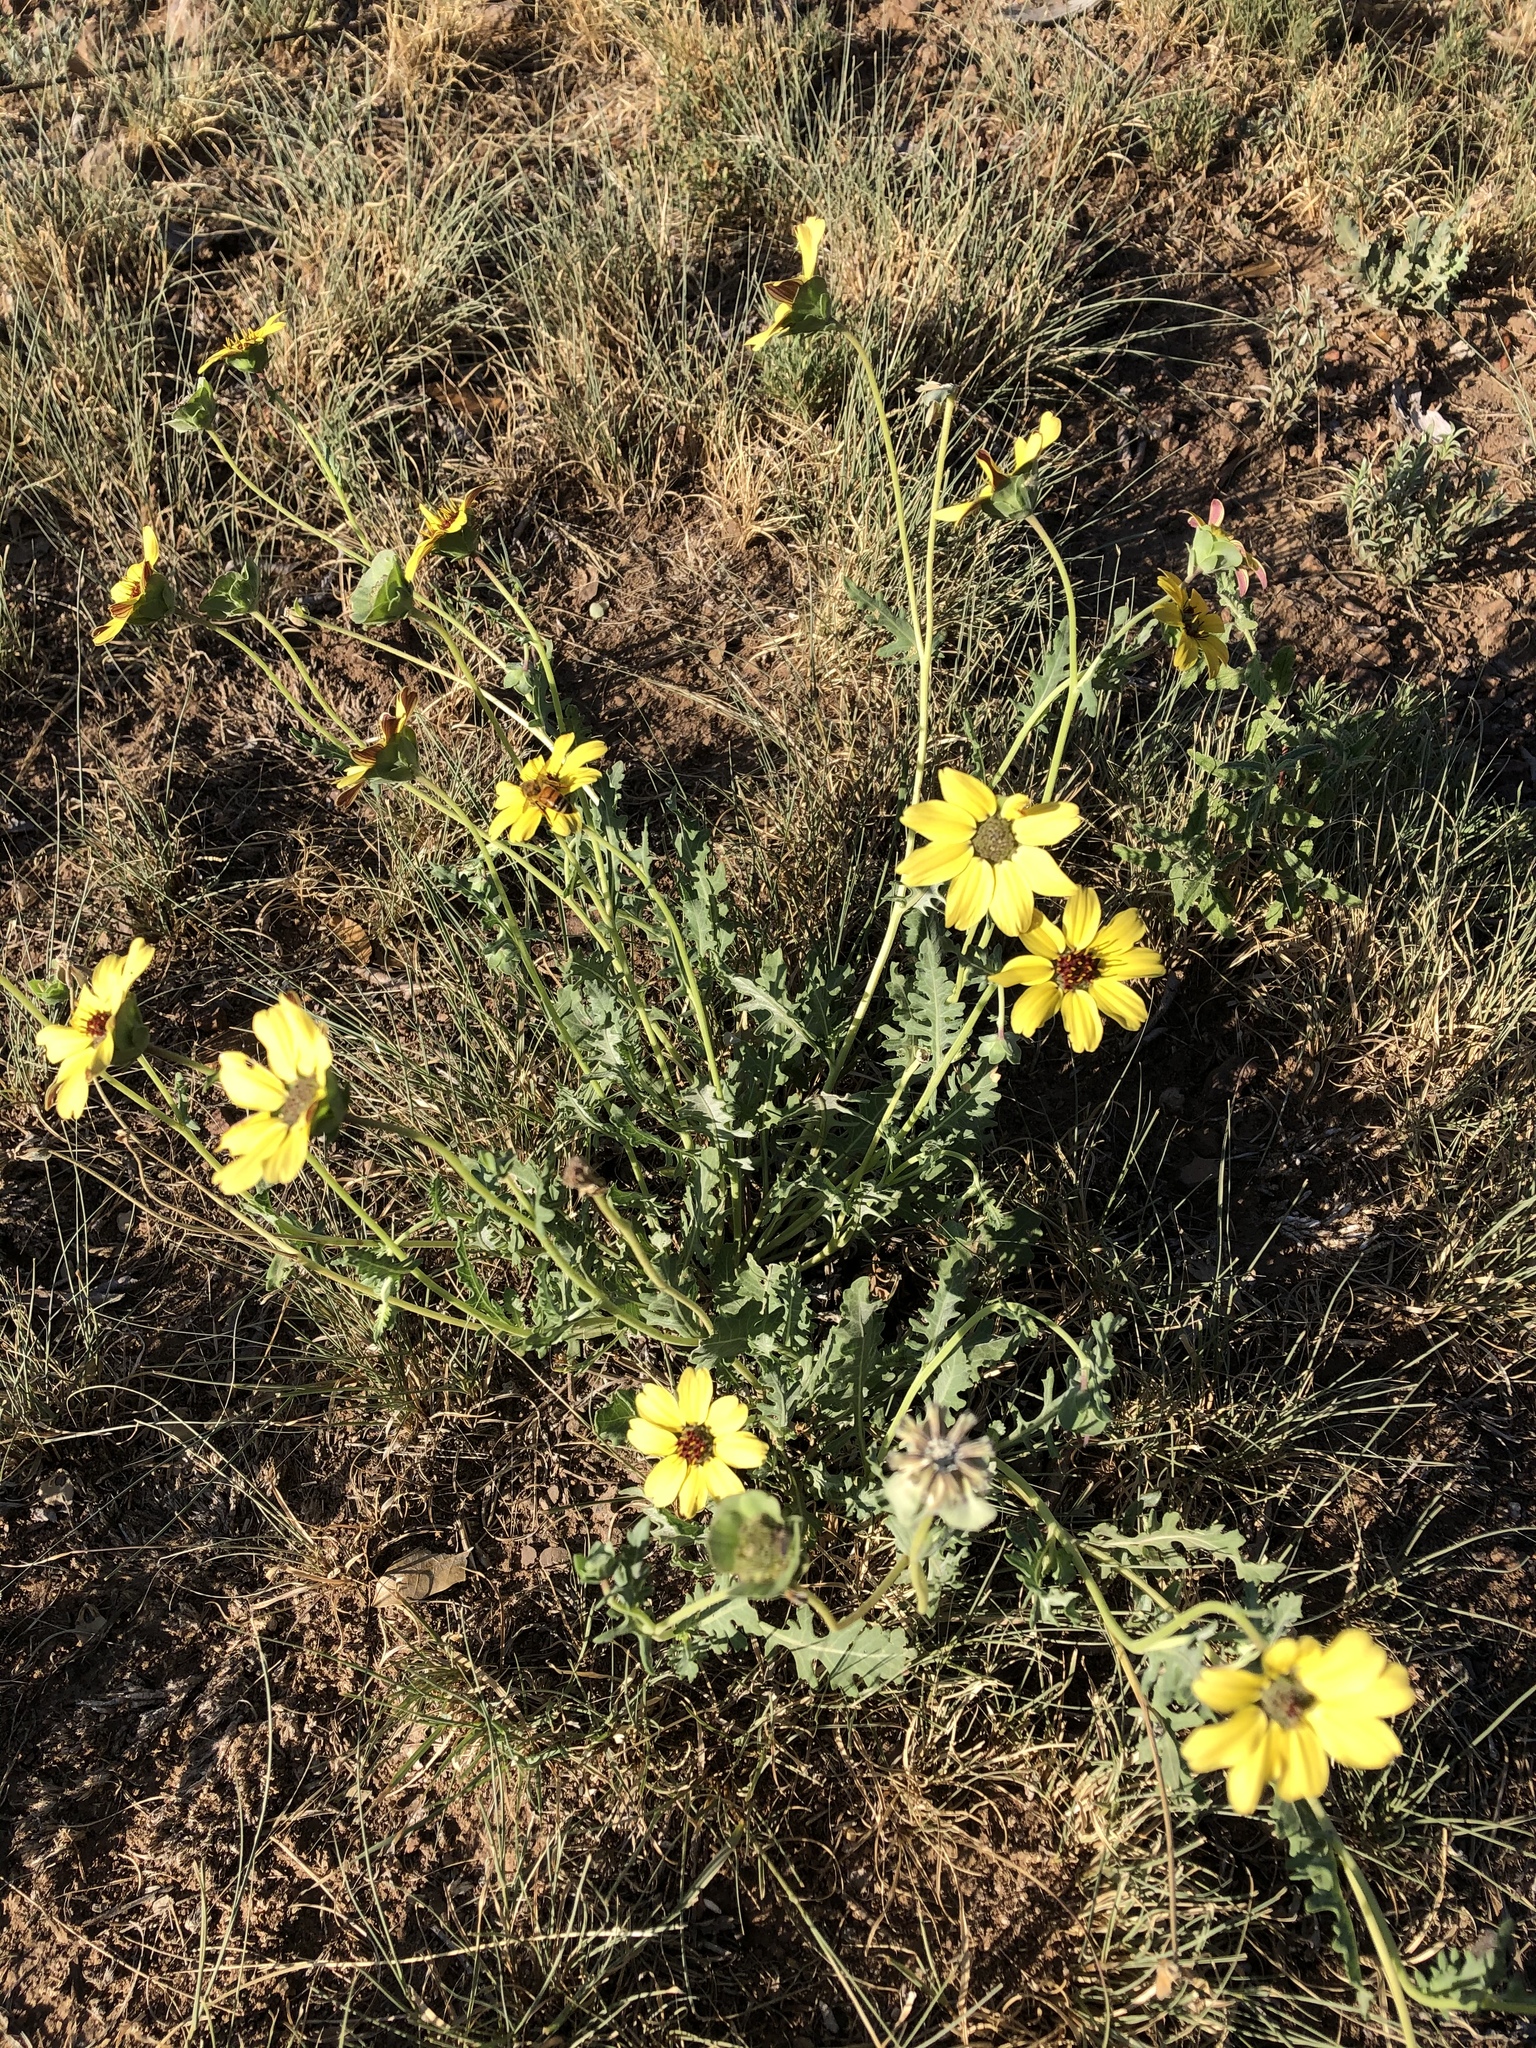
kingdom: Plantae
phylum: Tracheophyta
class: Magnoliopsida
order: Asterales
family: Asteraceae
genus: Berlandiera
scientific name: Berlandiera lyrata
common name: Chocolate-flower
